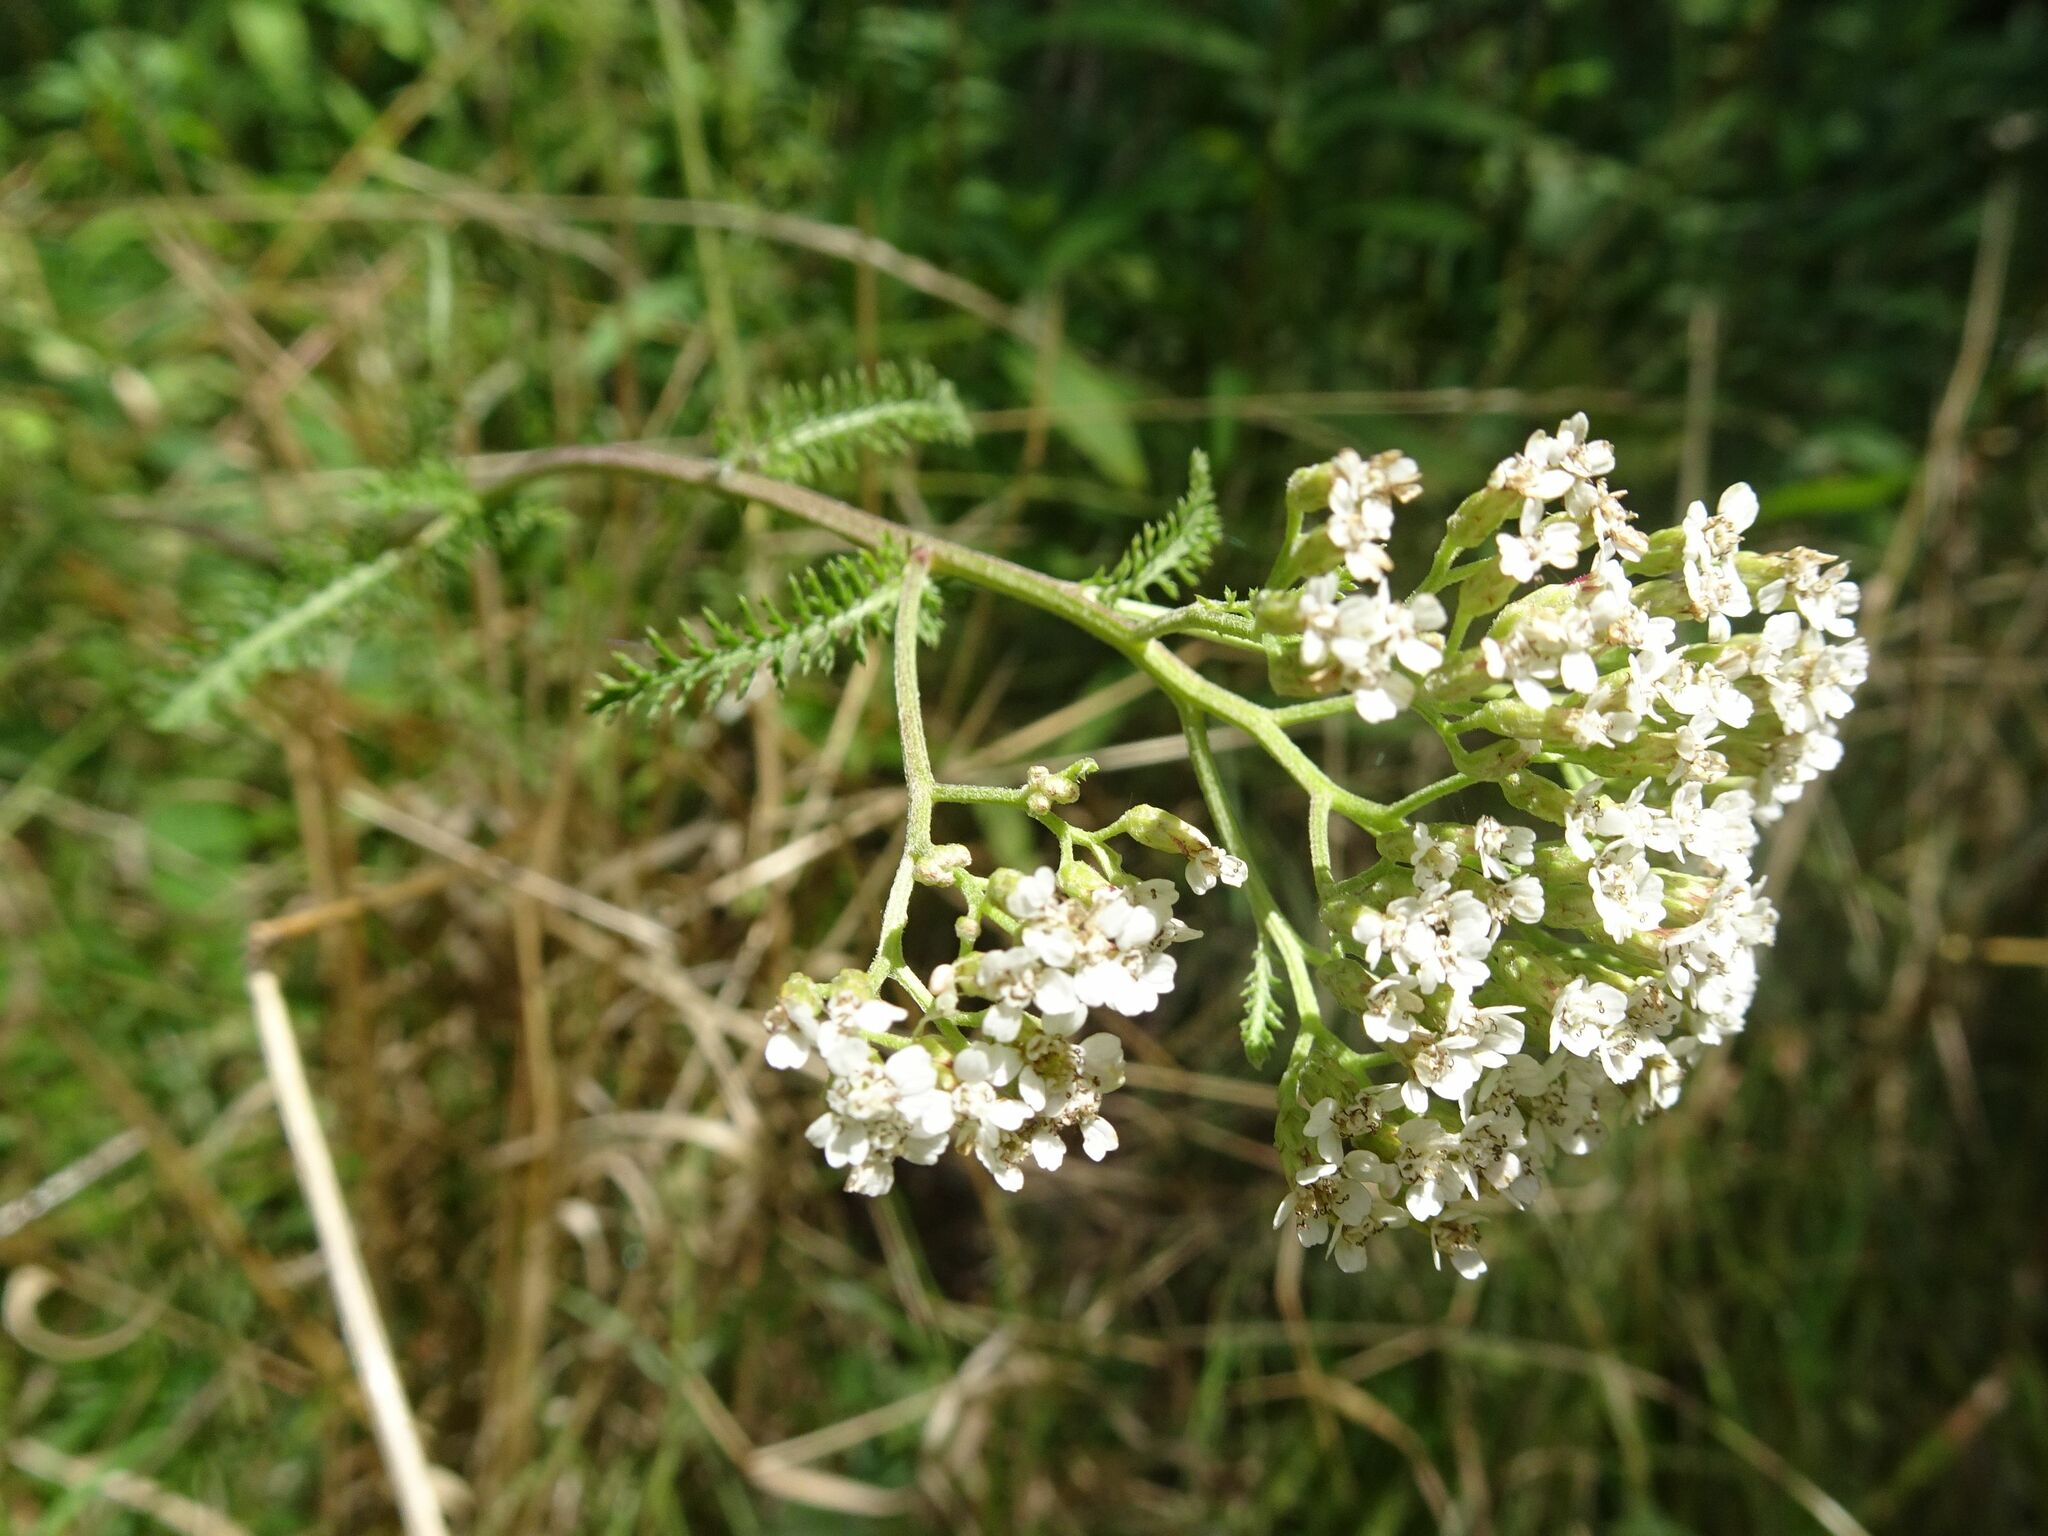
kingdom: Plantae
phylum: Tracheophyta
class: Magnoliopsida
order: Asterales
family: Asteraceae
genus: Achillea
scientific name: Achillea millefolium
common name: Yarrow
